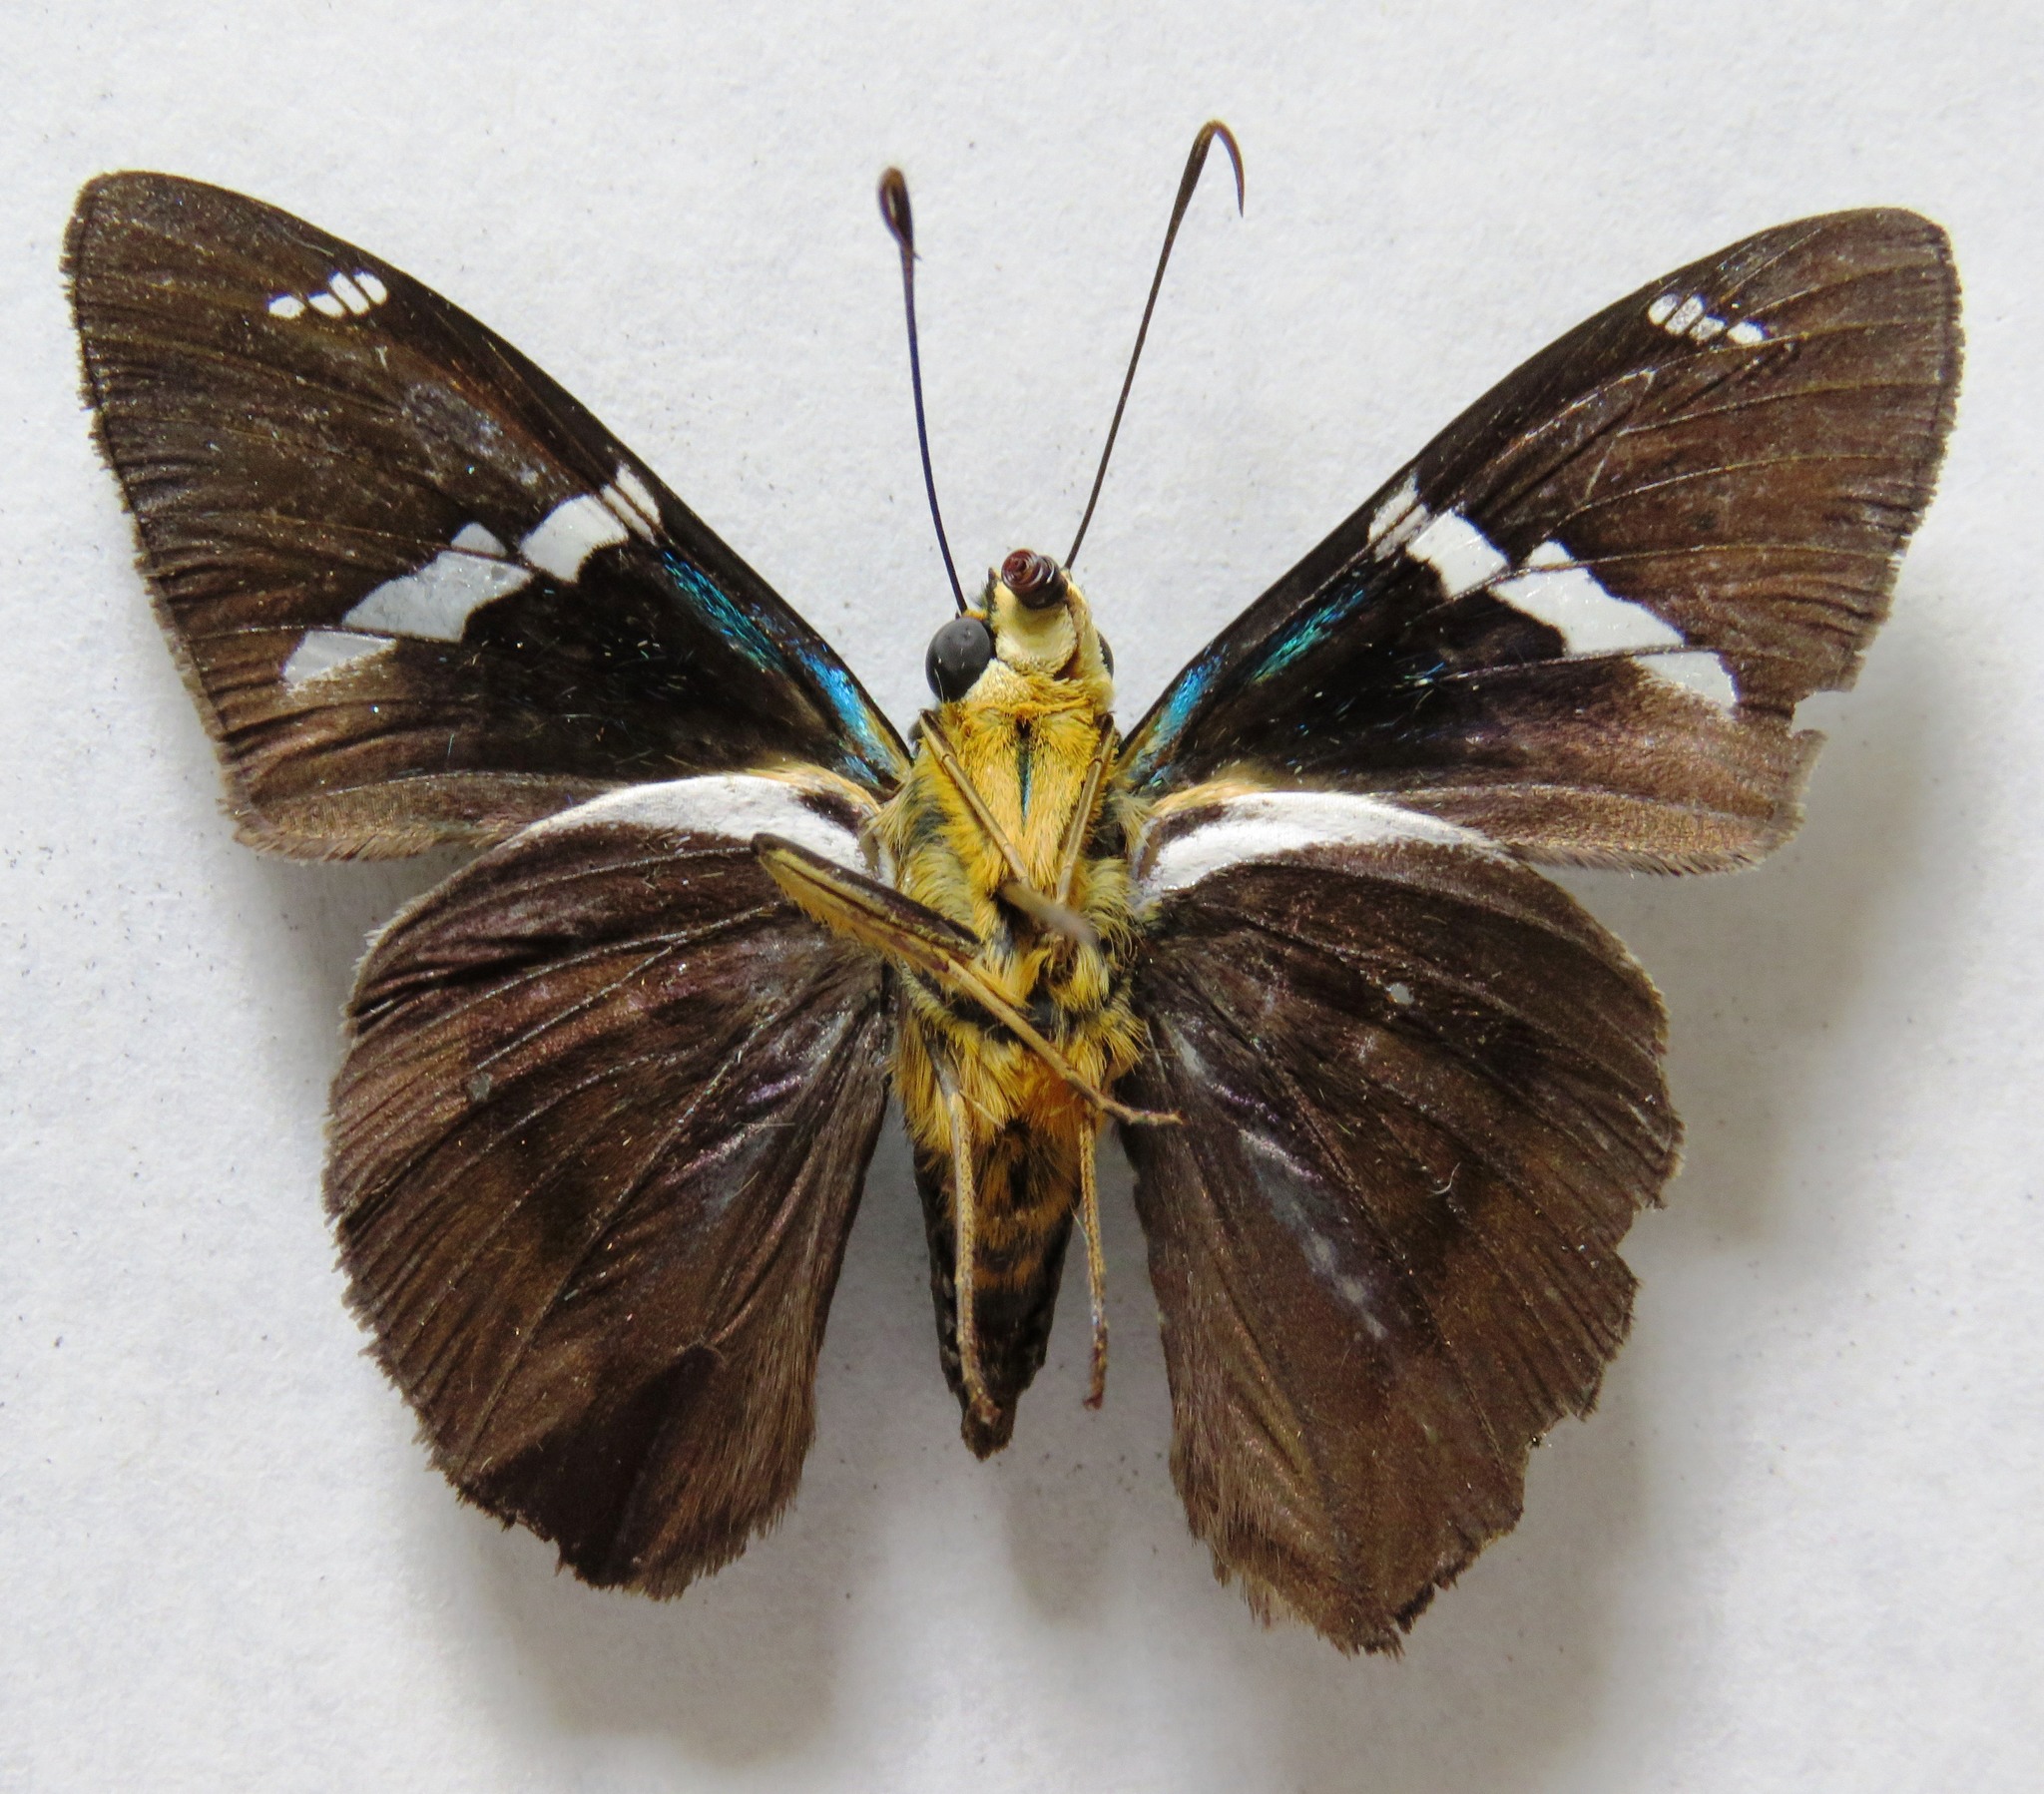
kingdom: Animalia
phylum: Arthropoda
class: Arachnida
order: Scorpiones
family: Bothriuridae
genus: Telegonus
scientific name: Telegonus
